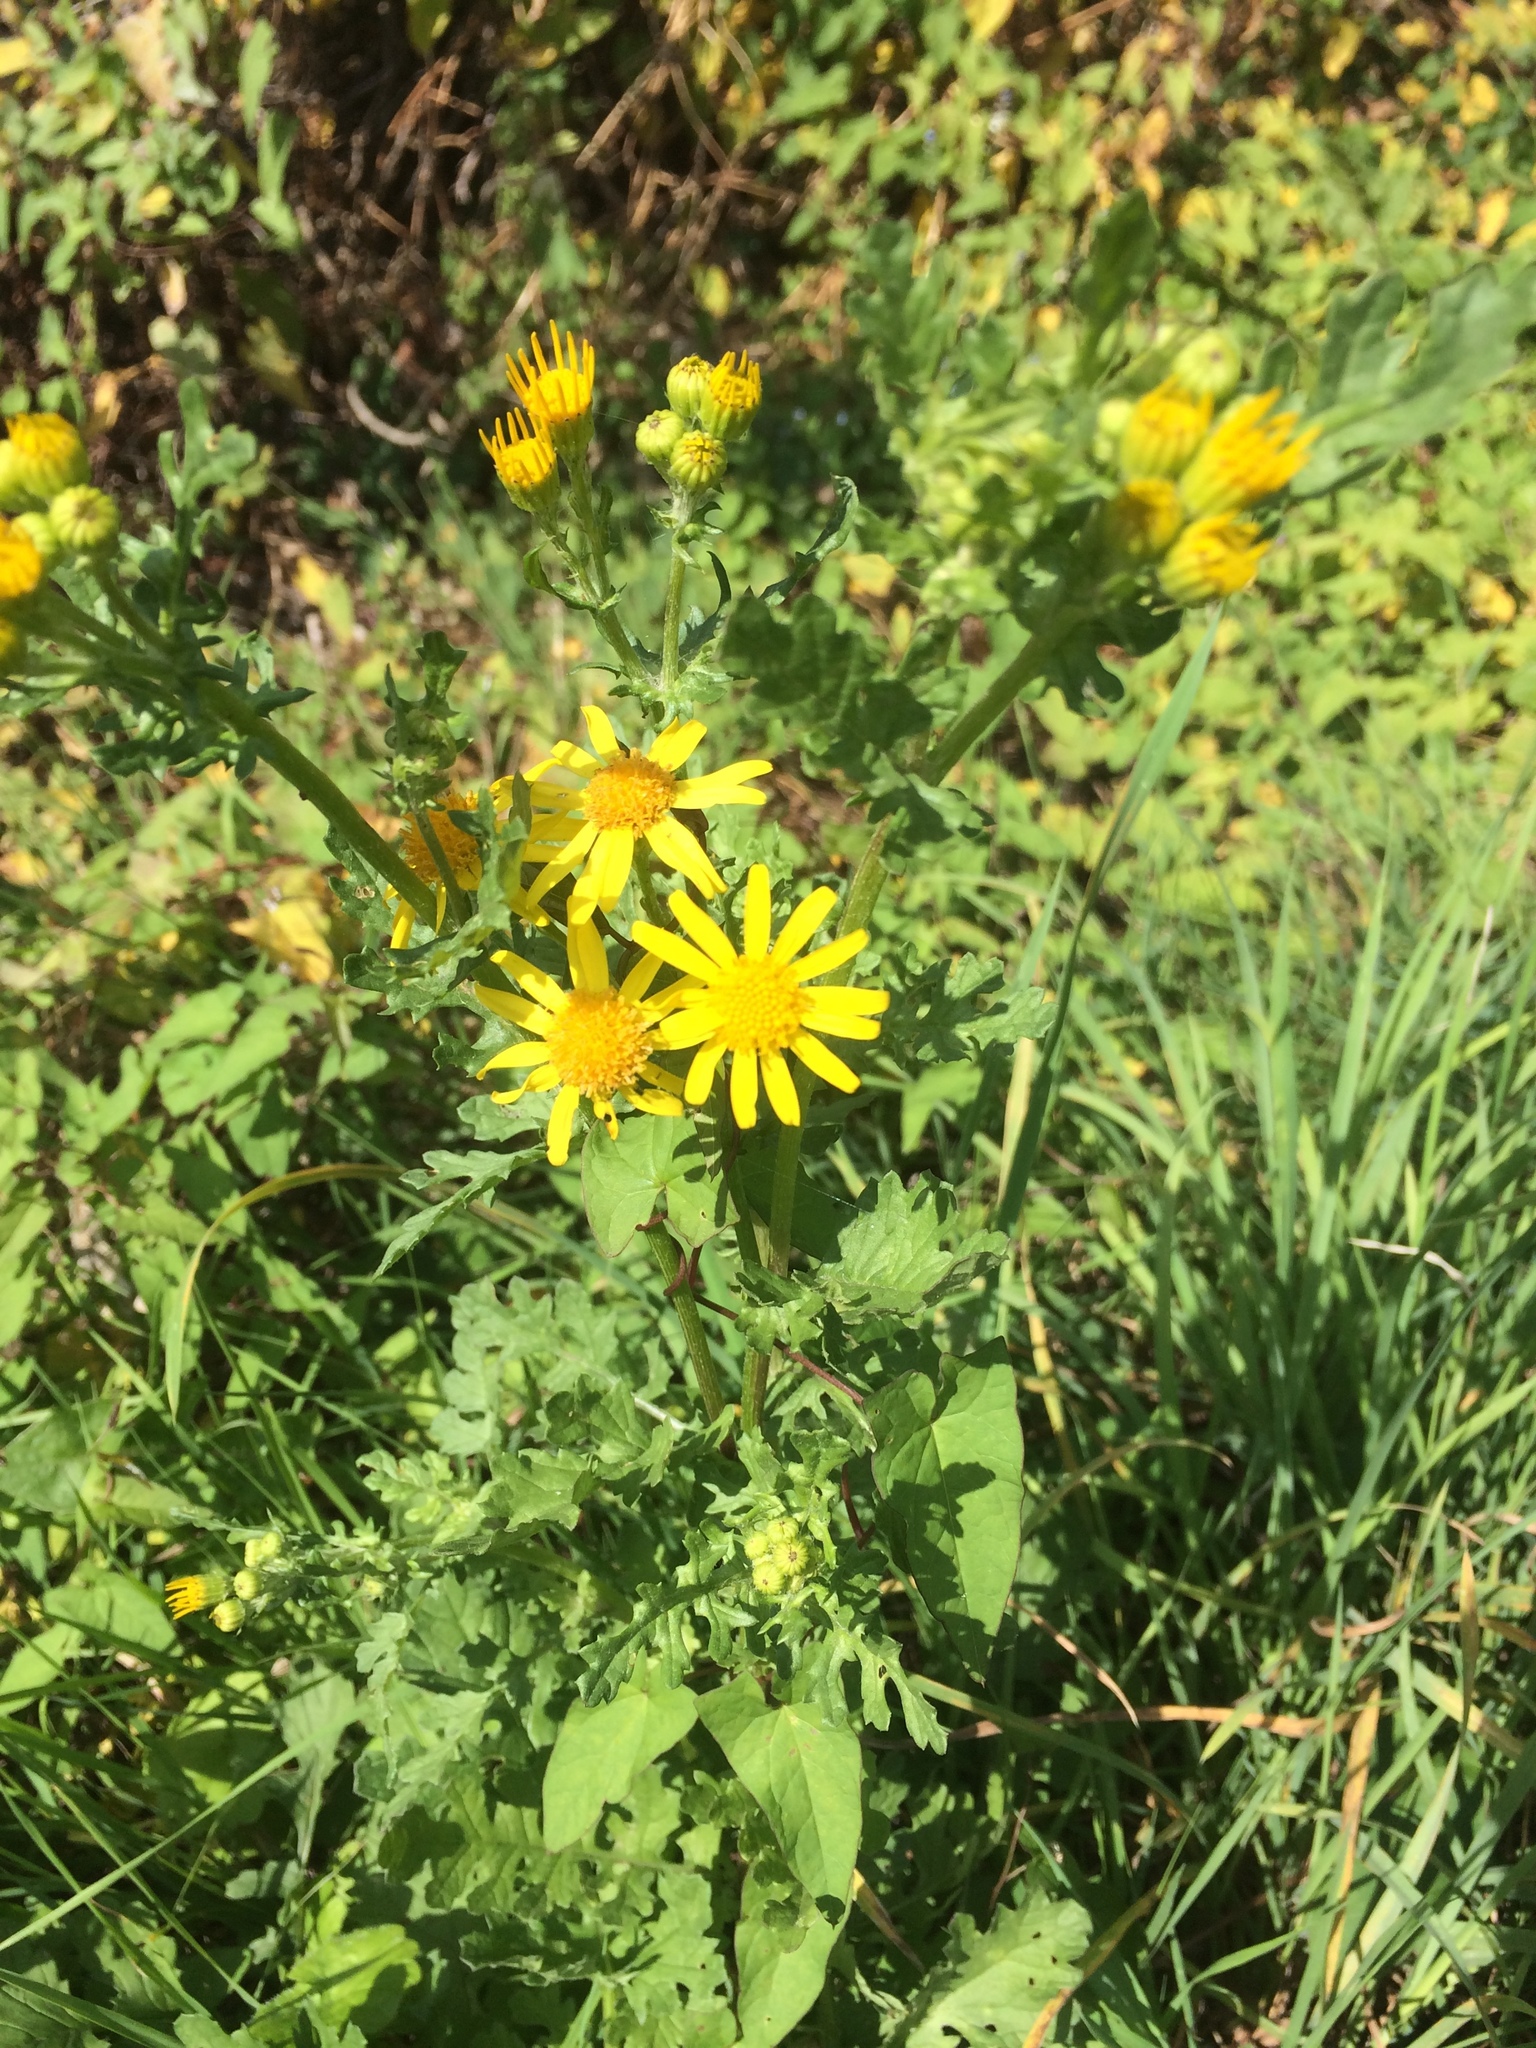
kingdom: Plantae
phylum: Tracheophyta
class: Magnoliopsida
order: Asterales
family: Asteraceae
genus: Jacobaea
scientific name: Jacobaea vulgaris
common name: Stinking willie
